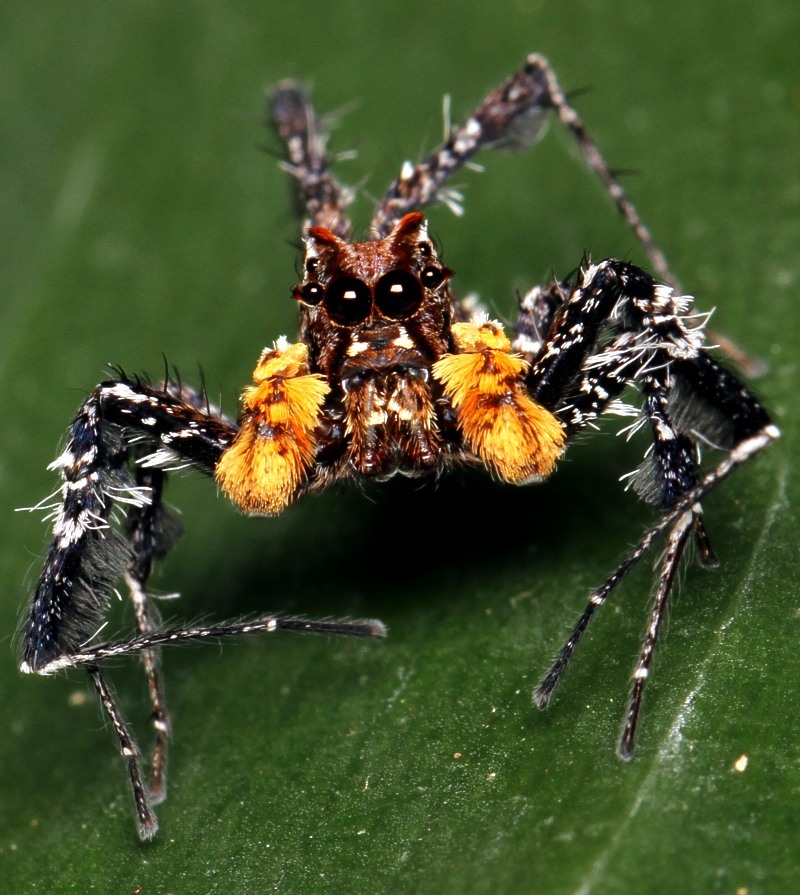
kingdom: Animalia
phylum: Arthropoda
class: Arachnida
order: Araneae
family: Salticidae
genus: Portia
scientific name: Portia schultzi
